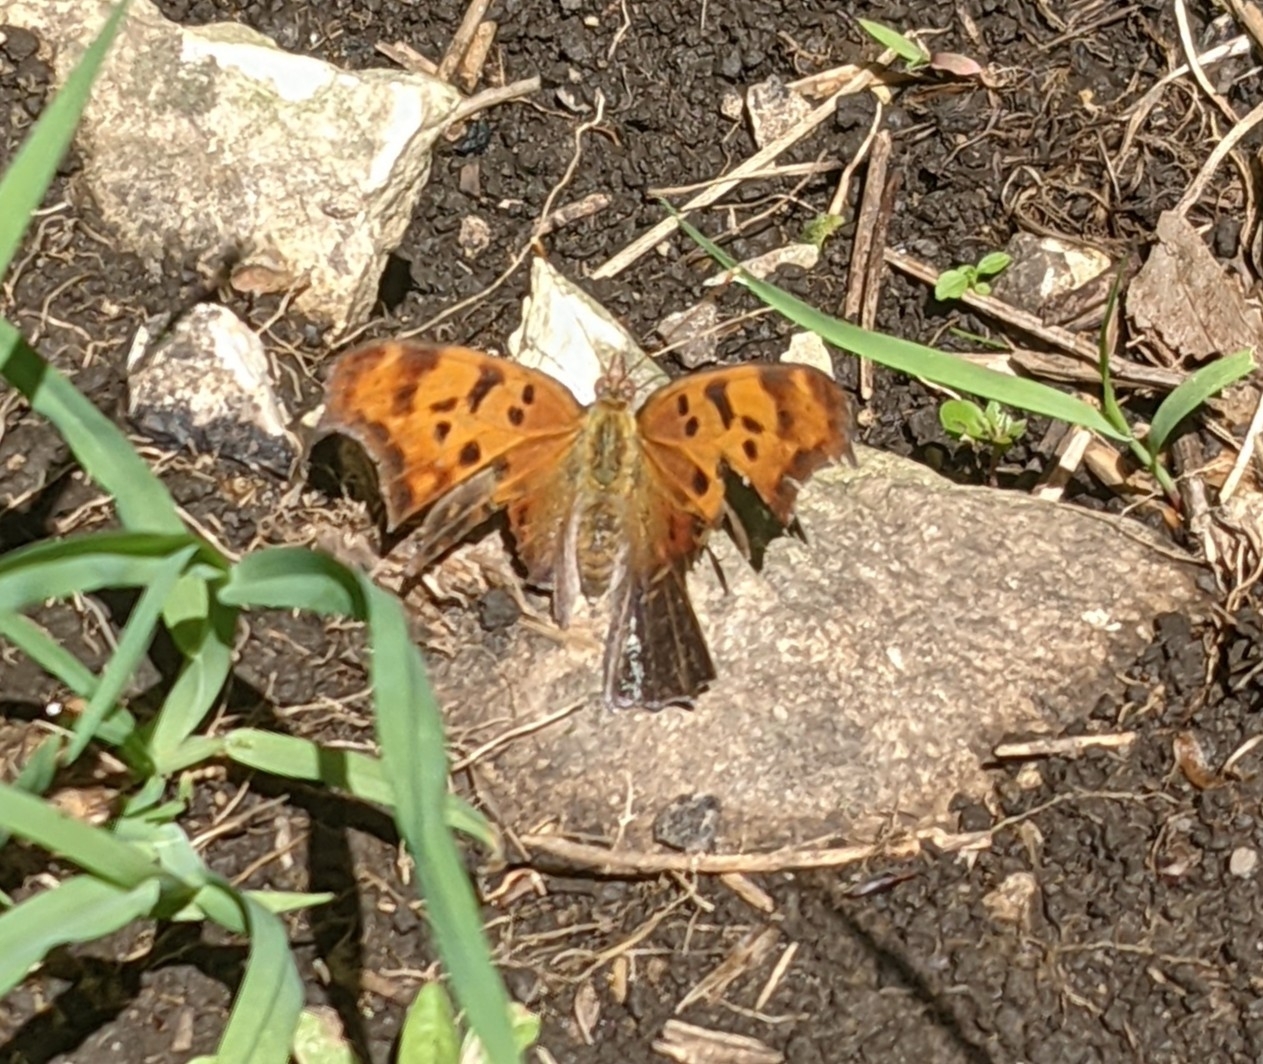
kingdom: Animalia
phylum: Arthropoda
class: Insecta
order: Lepidoptera
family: Nymphalidae
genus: Polygonia
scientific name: Polygonia interrogationis
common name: Question mark
